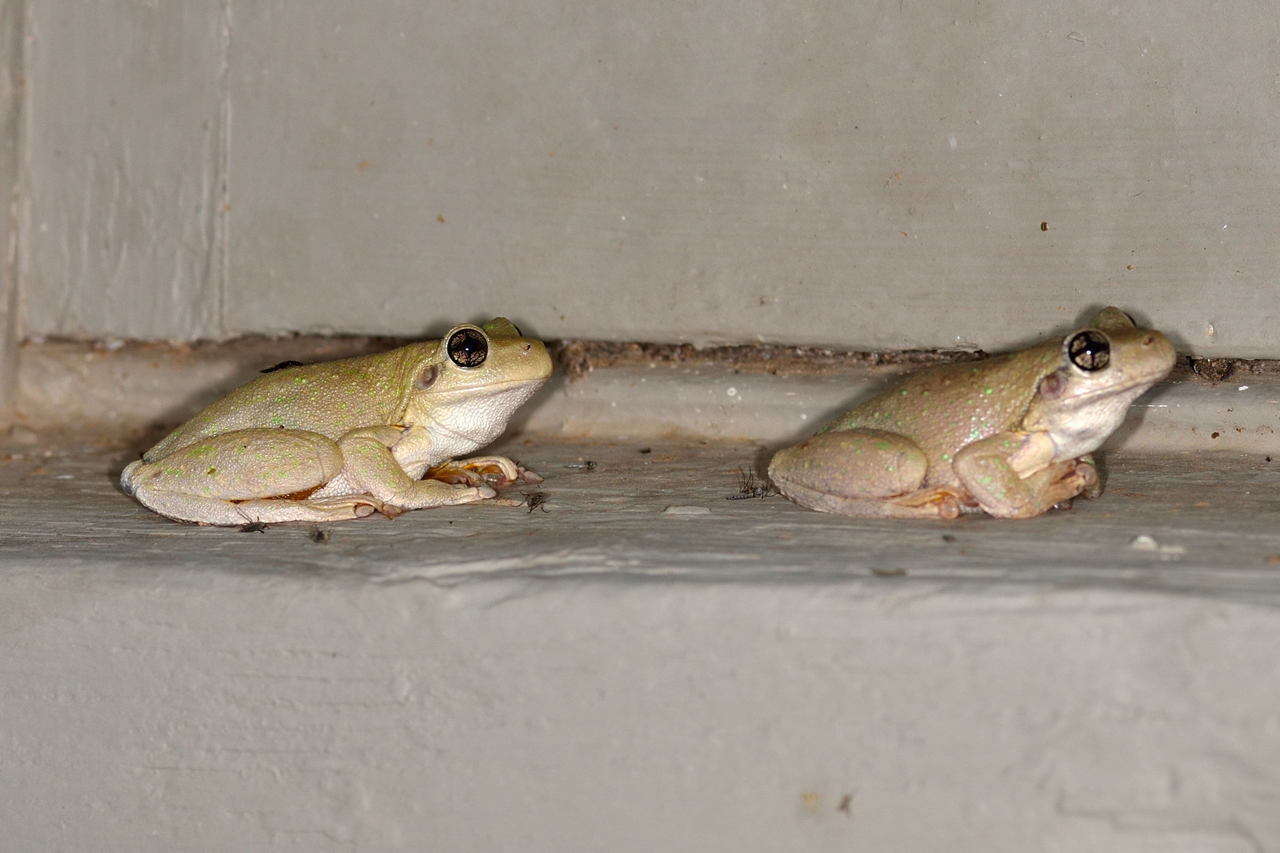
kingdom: Animalia
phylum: Chordata
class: Amphibia
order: Anura
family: Pelodryadidae
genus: Litoria
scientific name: Litoria peronii
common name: Emerald spotted treefrog
